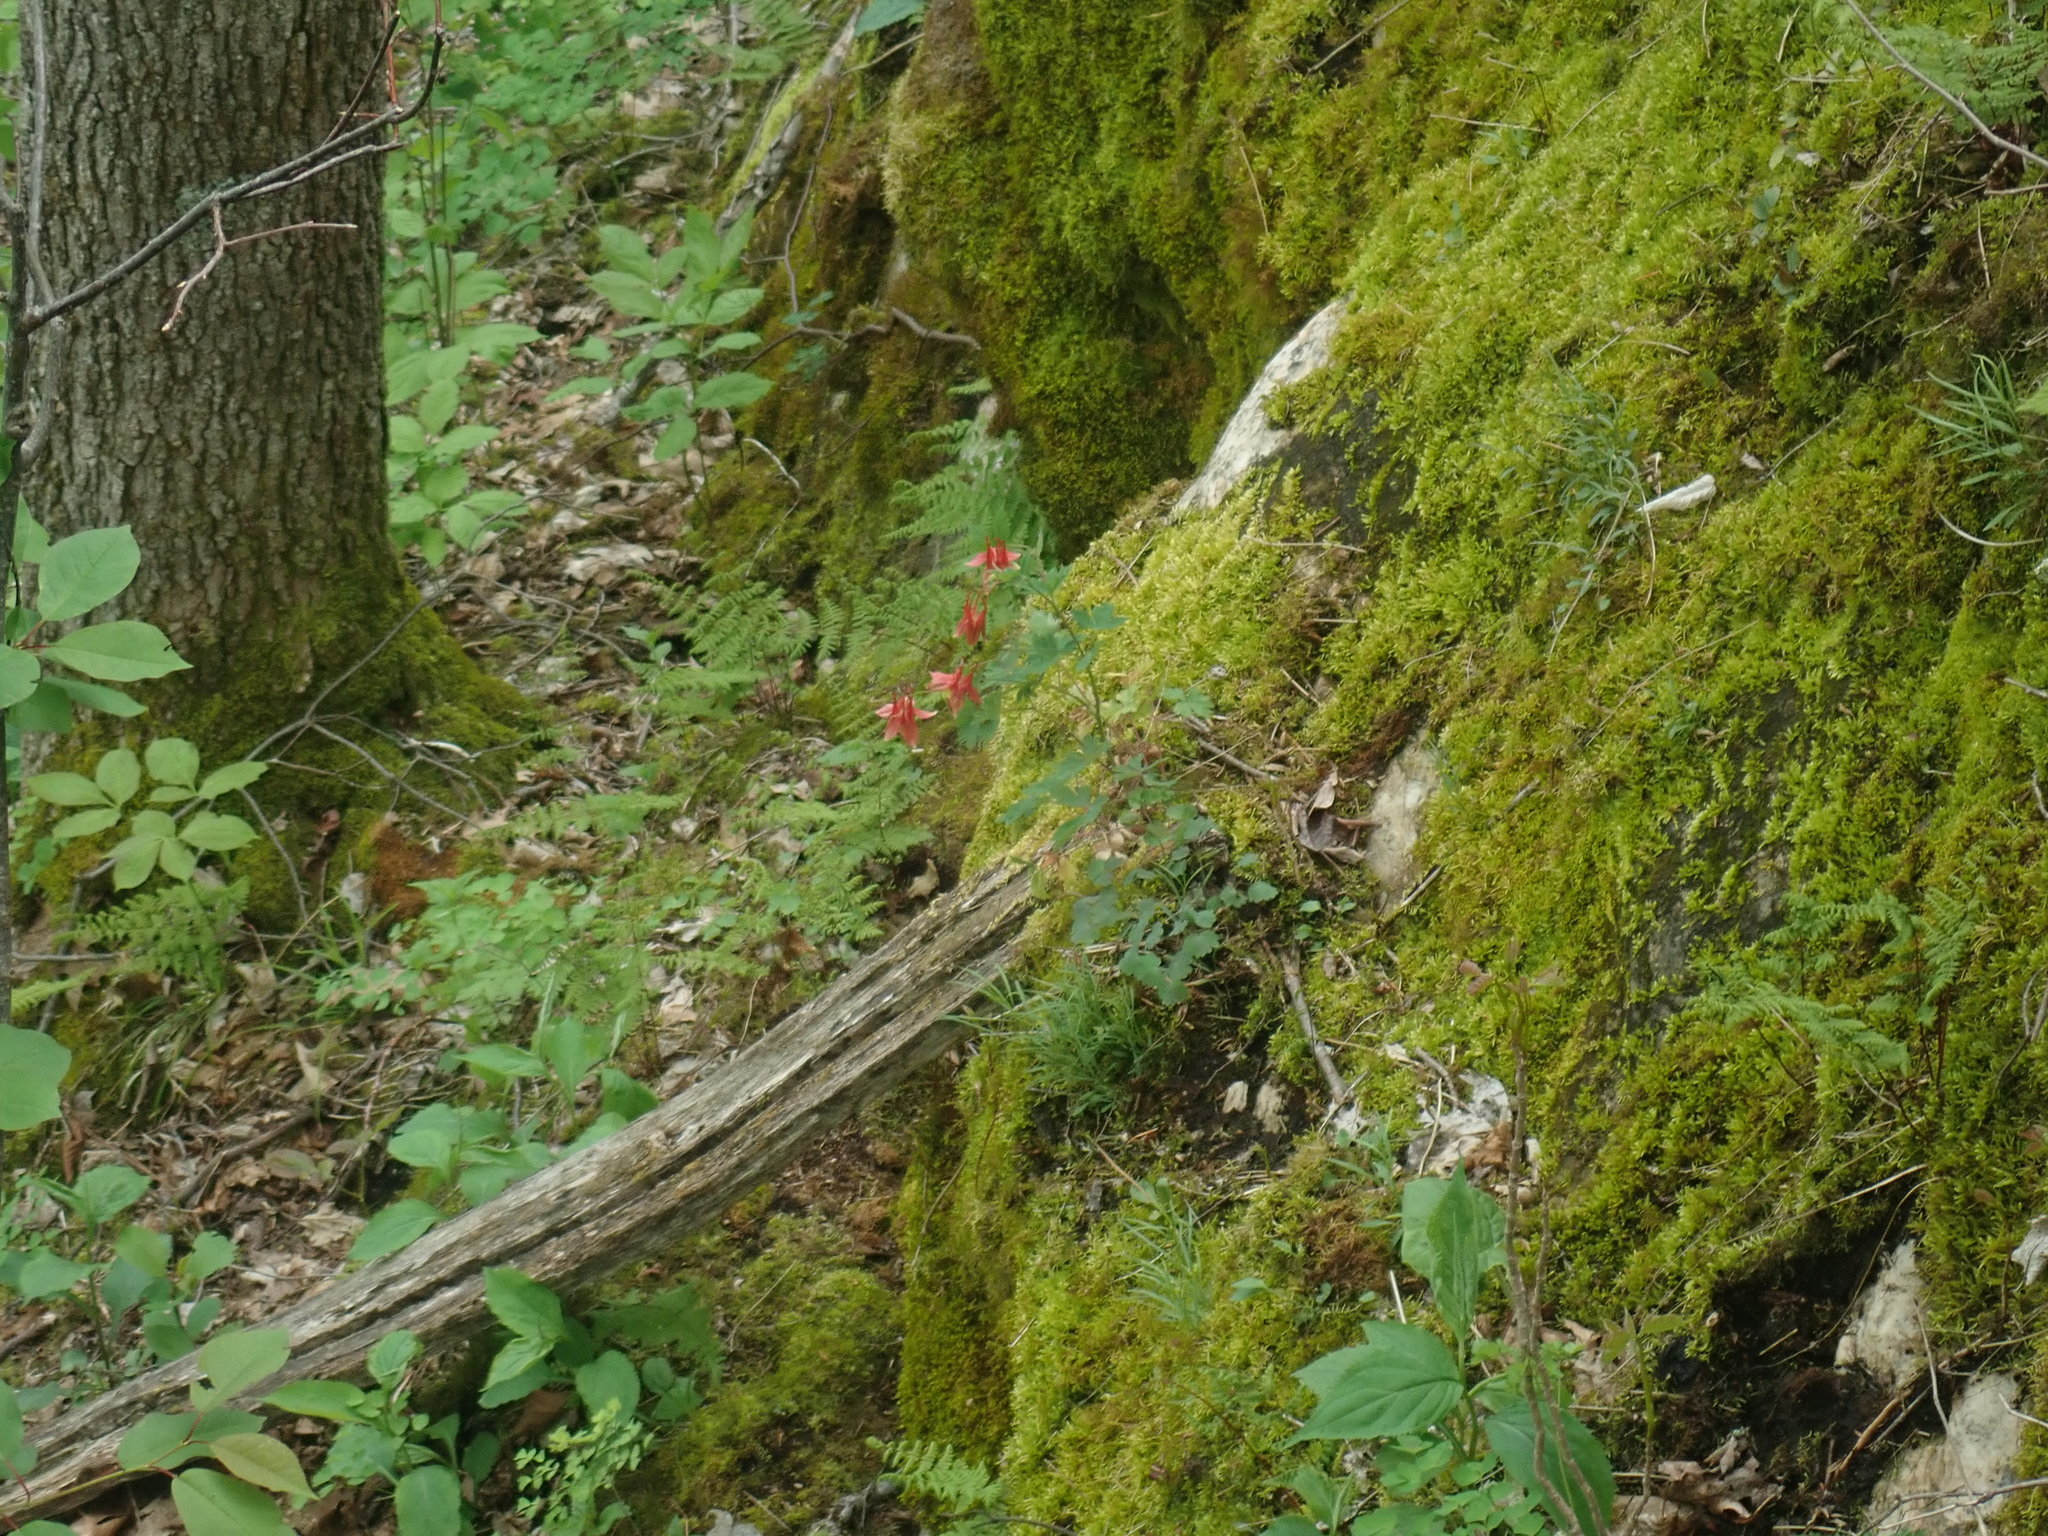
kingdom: Plantae
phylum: Tracheophyta
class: Magnoliopsida
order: Ranunculales
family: Ranunculaceae
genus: Aquilegia
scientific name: Aquilegia canadensis
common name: American columbine
